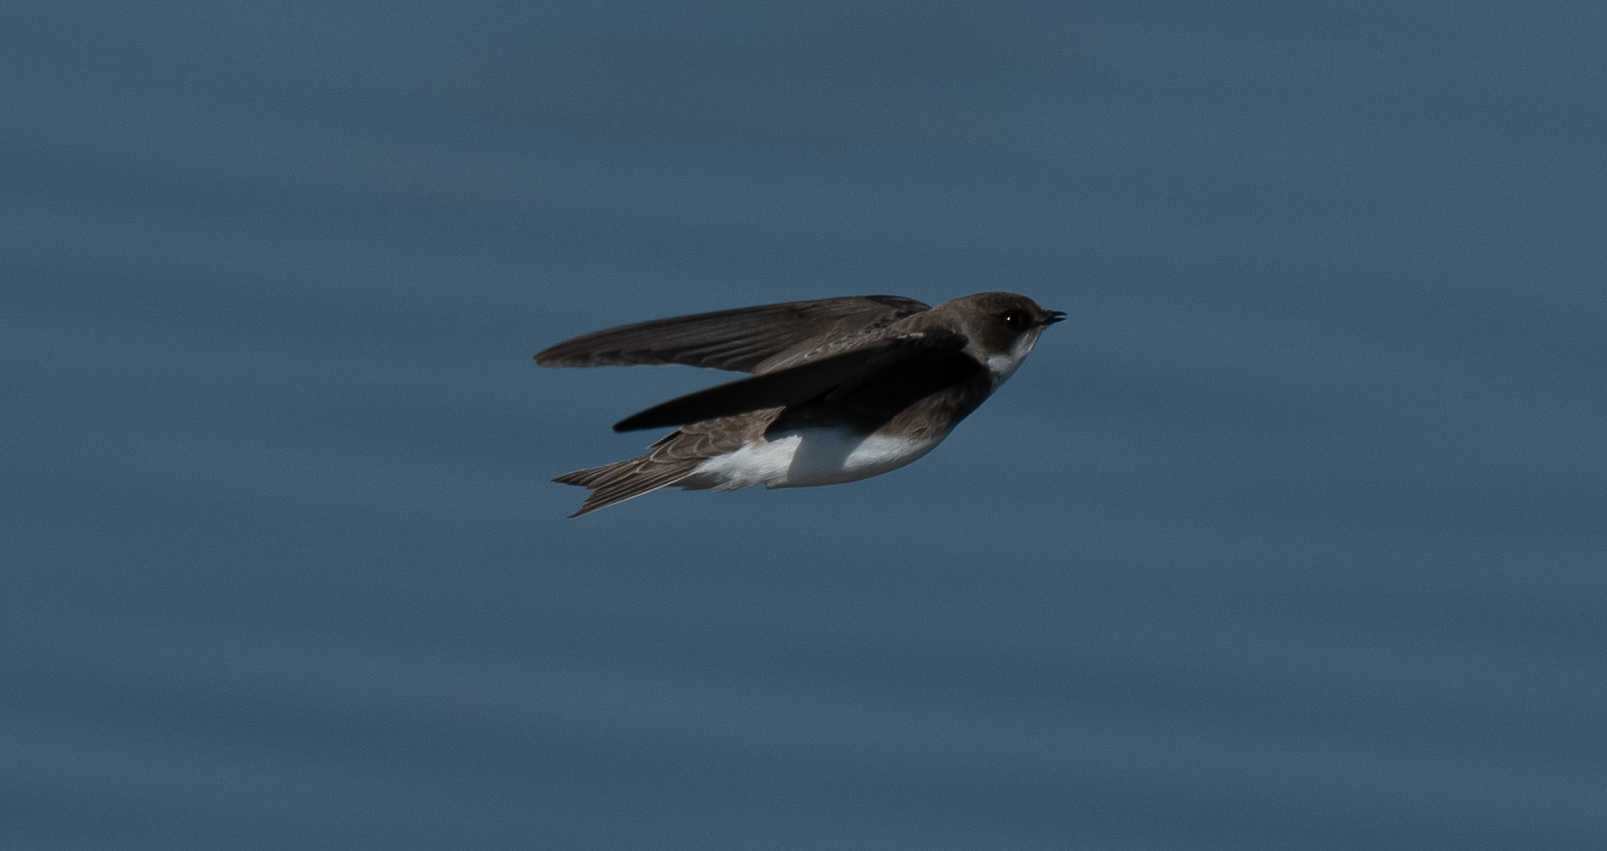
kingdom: Animalia
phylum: Chordata
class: Aves
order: Passeriformes
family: Hirundinidae
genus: Riparia
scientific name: Riparia riparia
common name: Sand martin
